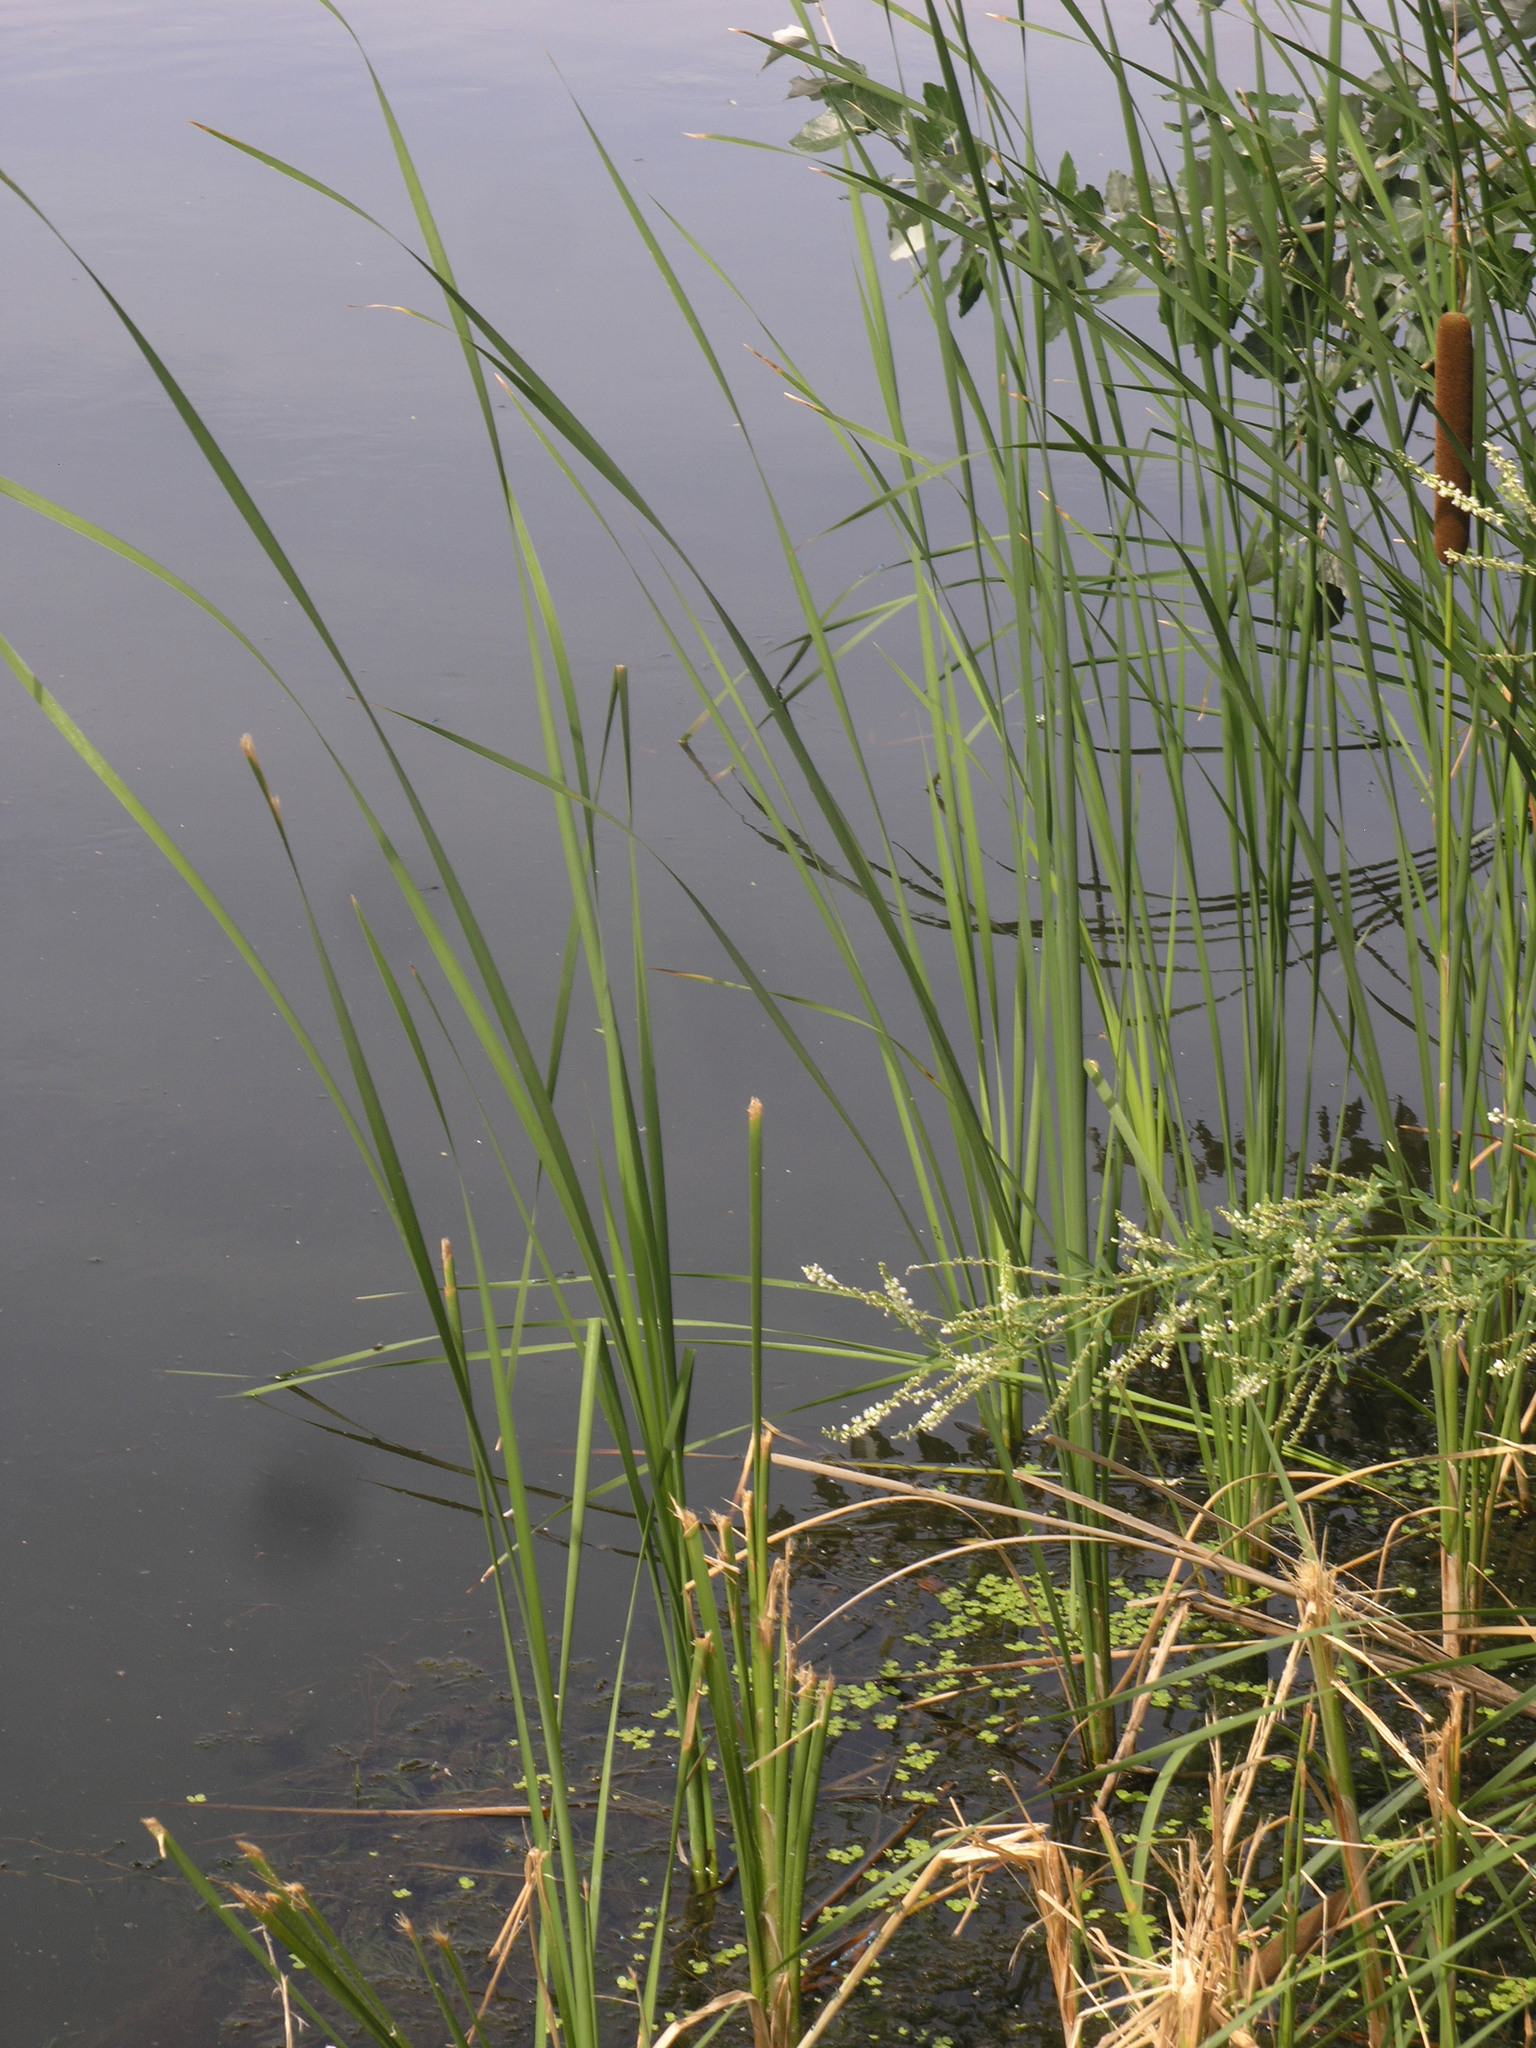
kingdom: Plantae
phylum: Tracheophyta
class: Liliopsida
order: Poales
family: Typhaceae
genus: Typha
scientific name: Typha angustifolia
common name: Lesser bulrush
